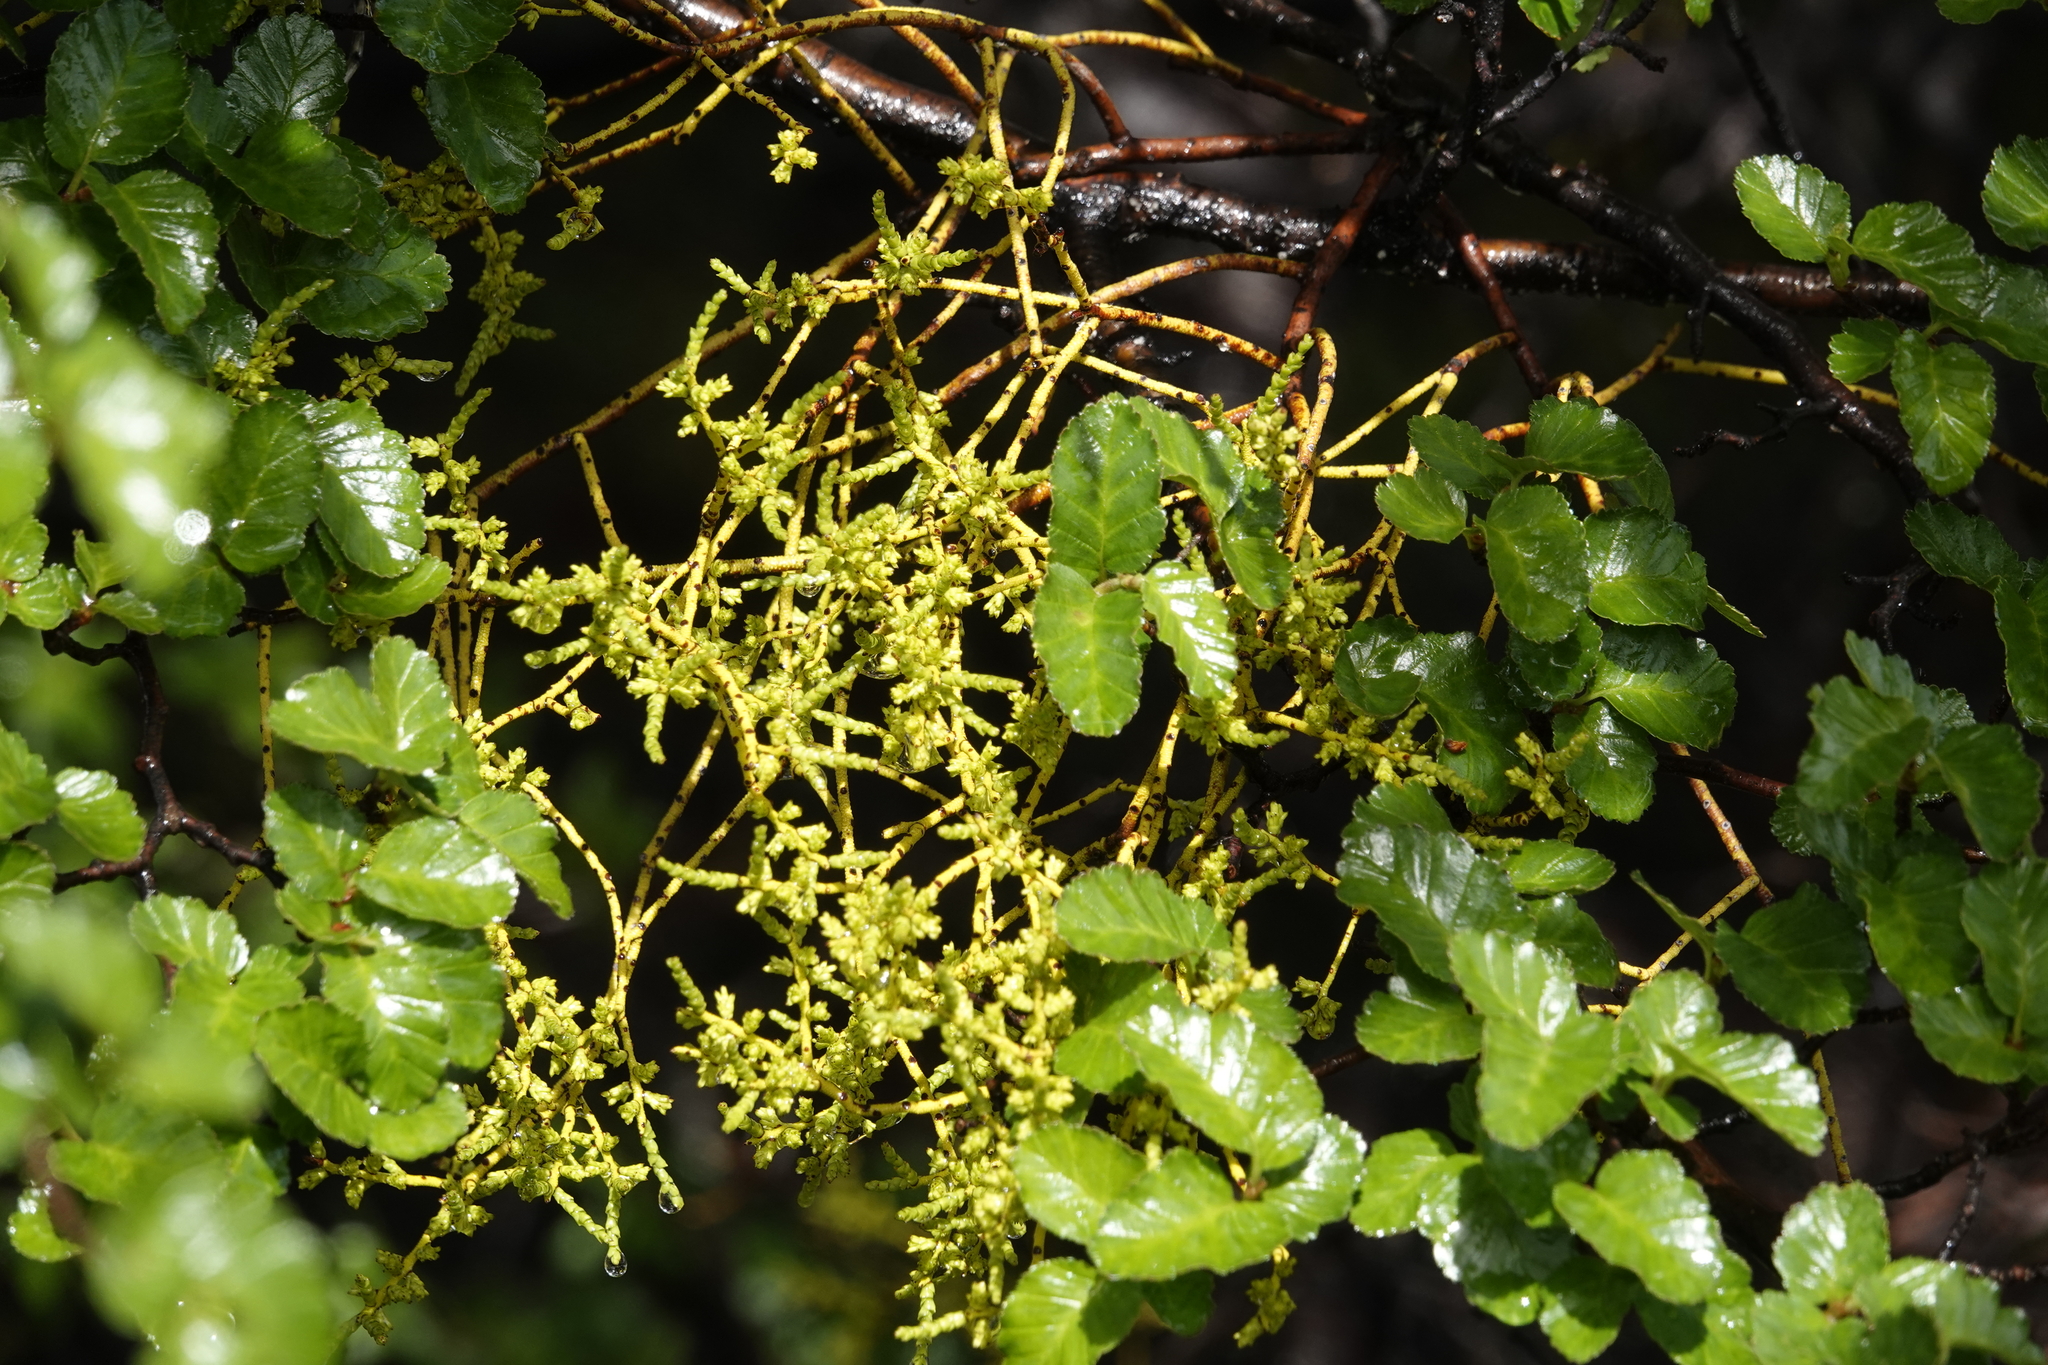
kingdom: Plantae
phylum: Tracheophyta
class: Magnoliopsida
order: Santalales
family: Misodendraceae
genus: Misodendrum
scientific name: Misodendrum punctulatum
